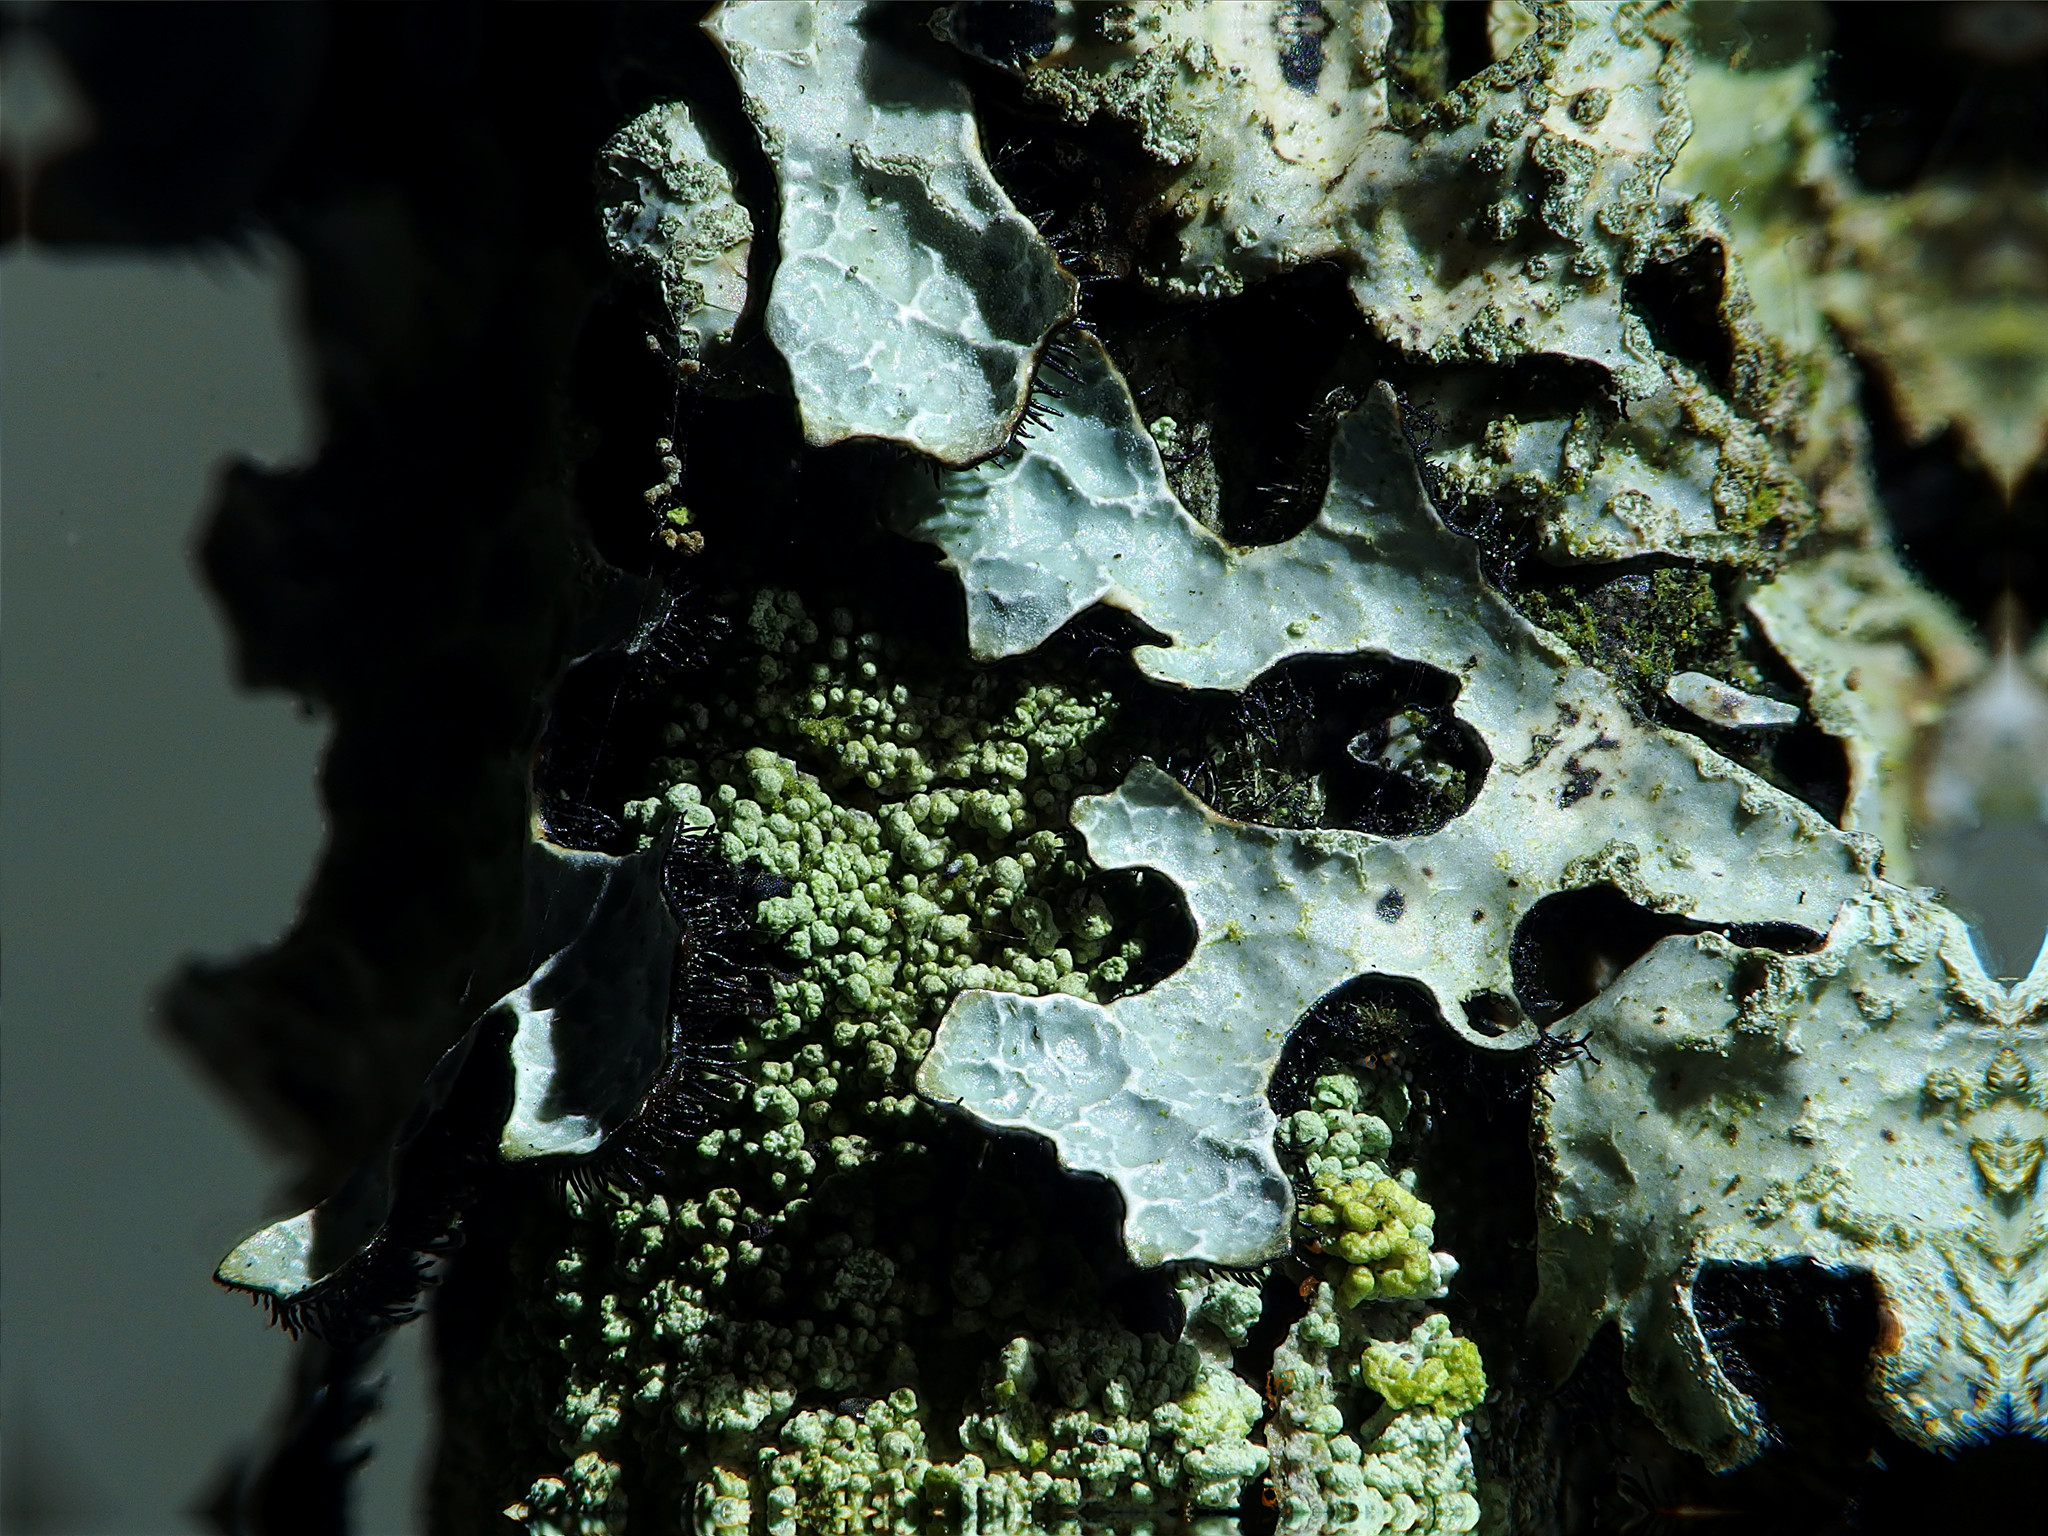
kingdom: Fungi
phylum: Ascomycota
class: Lecanoromycetes
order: Lecanorales
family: Parmeliaceae
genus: Parmelia
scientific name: Parmelia sulcata
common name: Netted shield lichen
